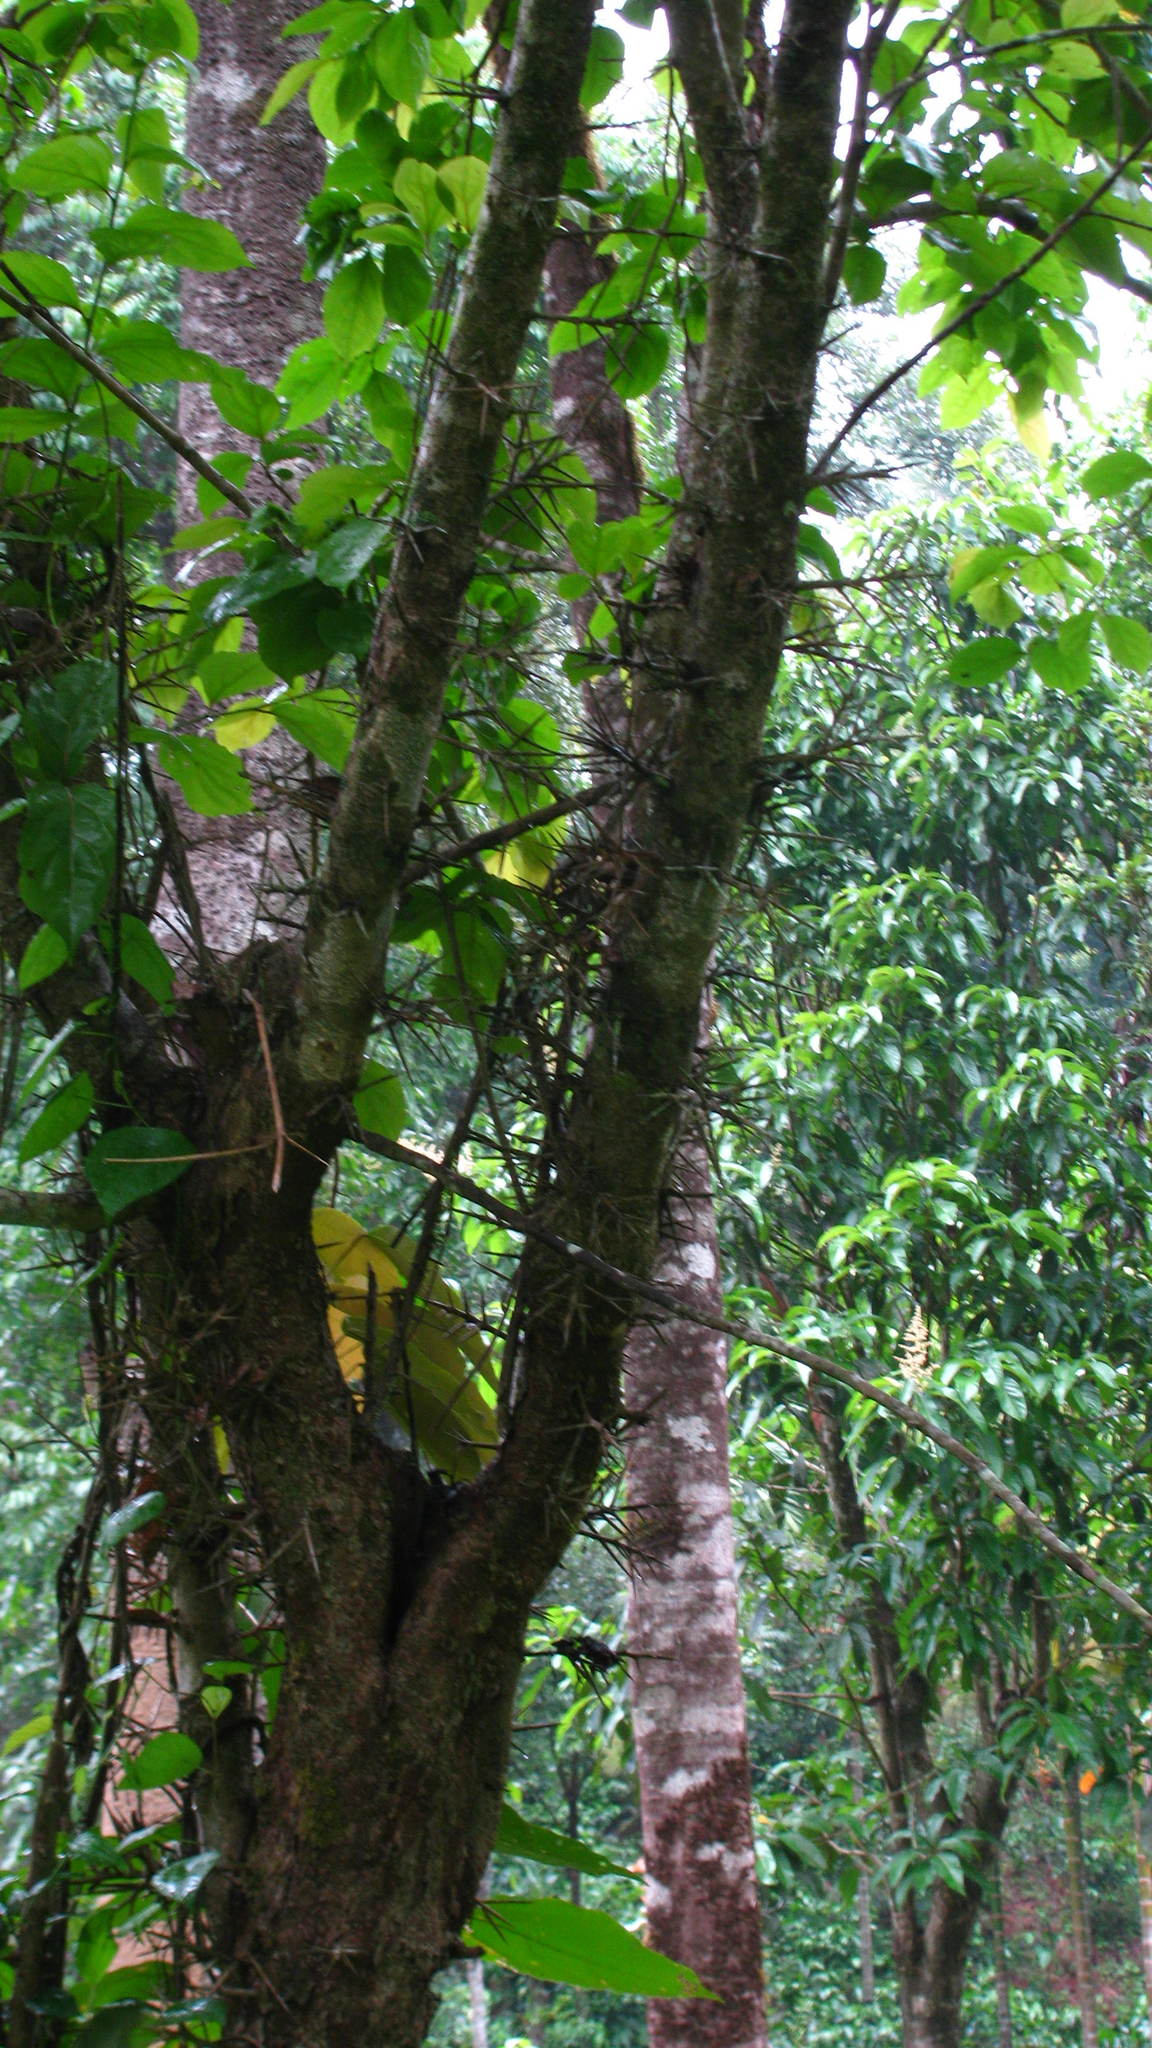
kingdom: Plantae
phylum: Tracheophyta
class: Magnoliopsida
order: Malpighiales
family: Salicaceae
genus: Flacourtia
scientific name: Flacourtia montana
